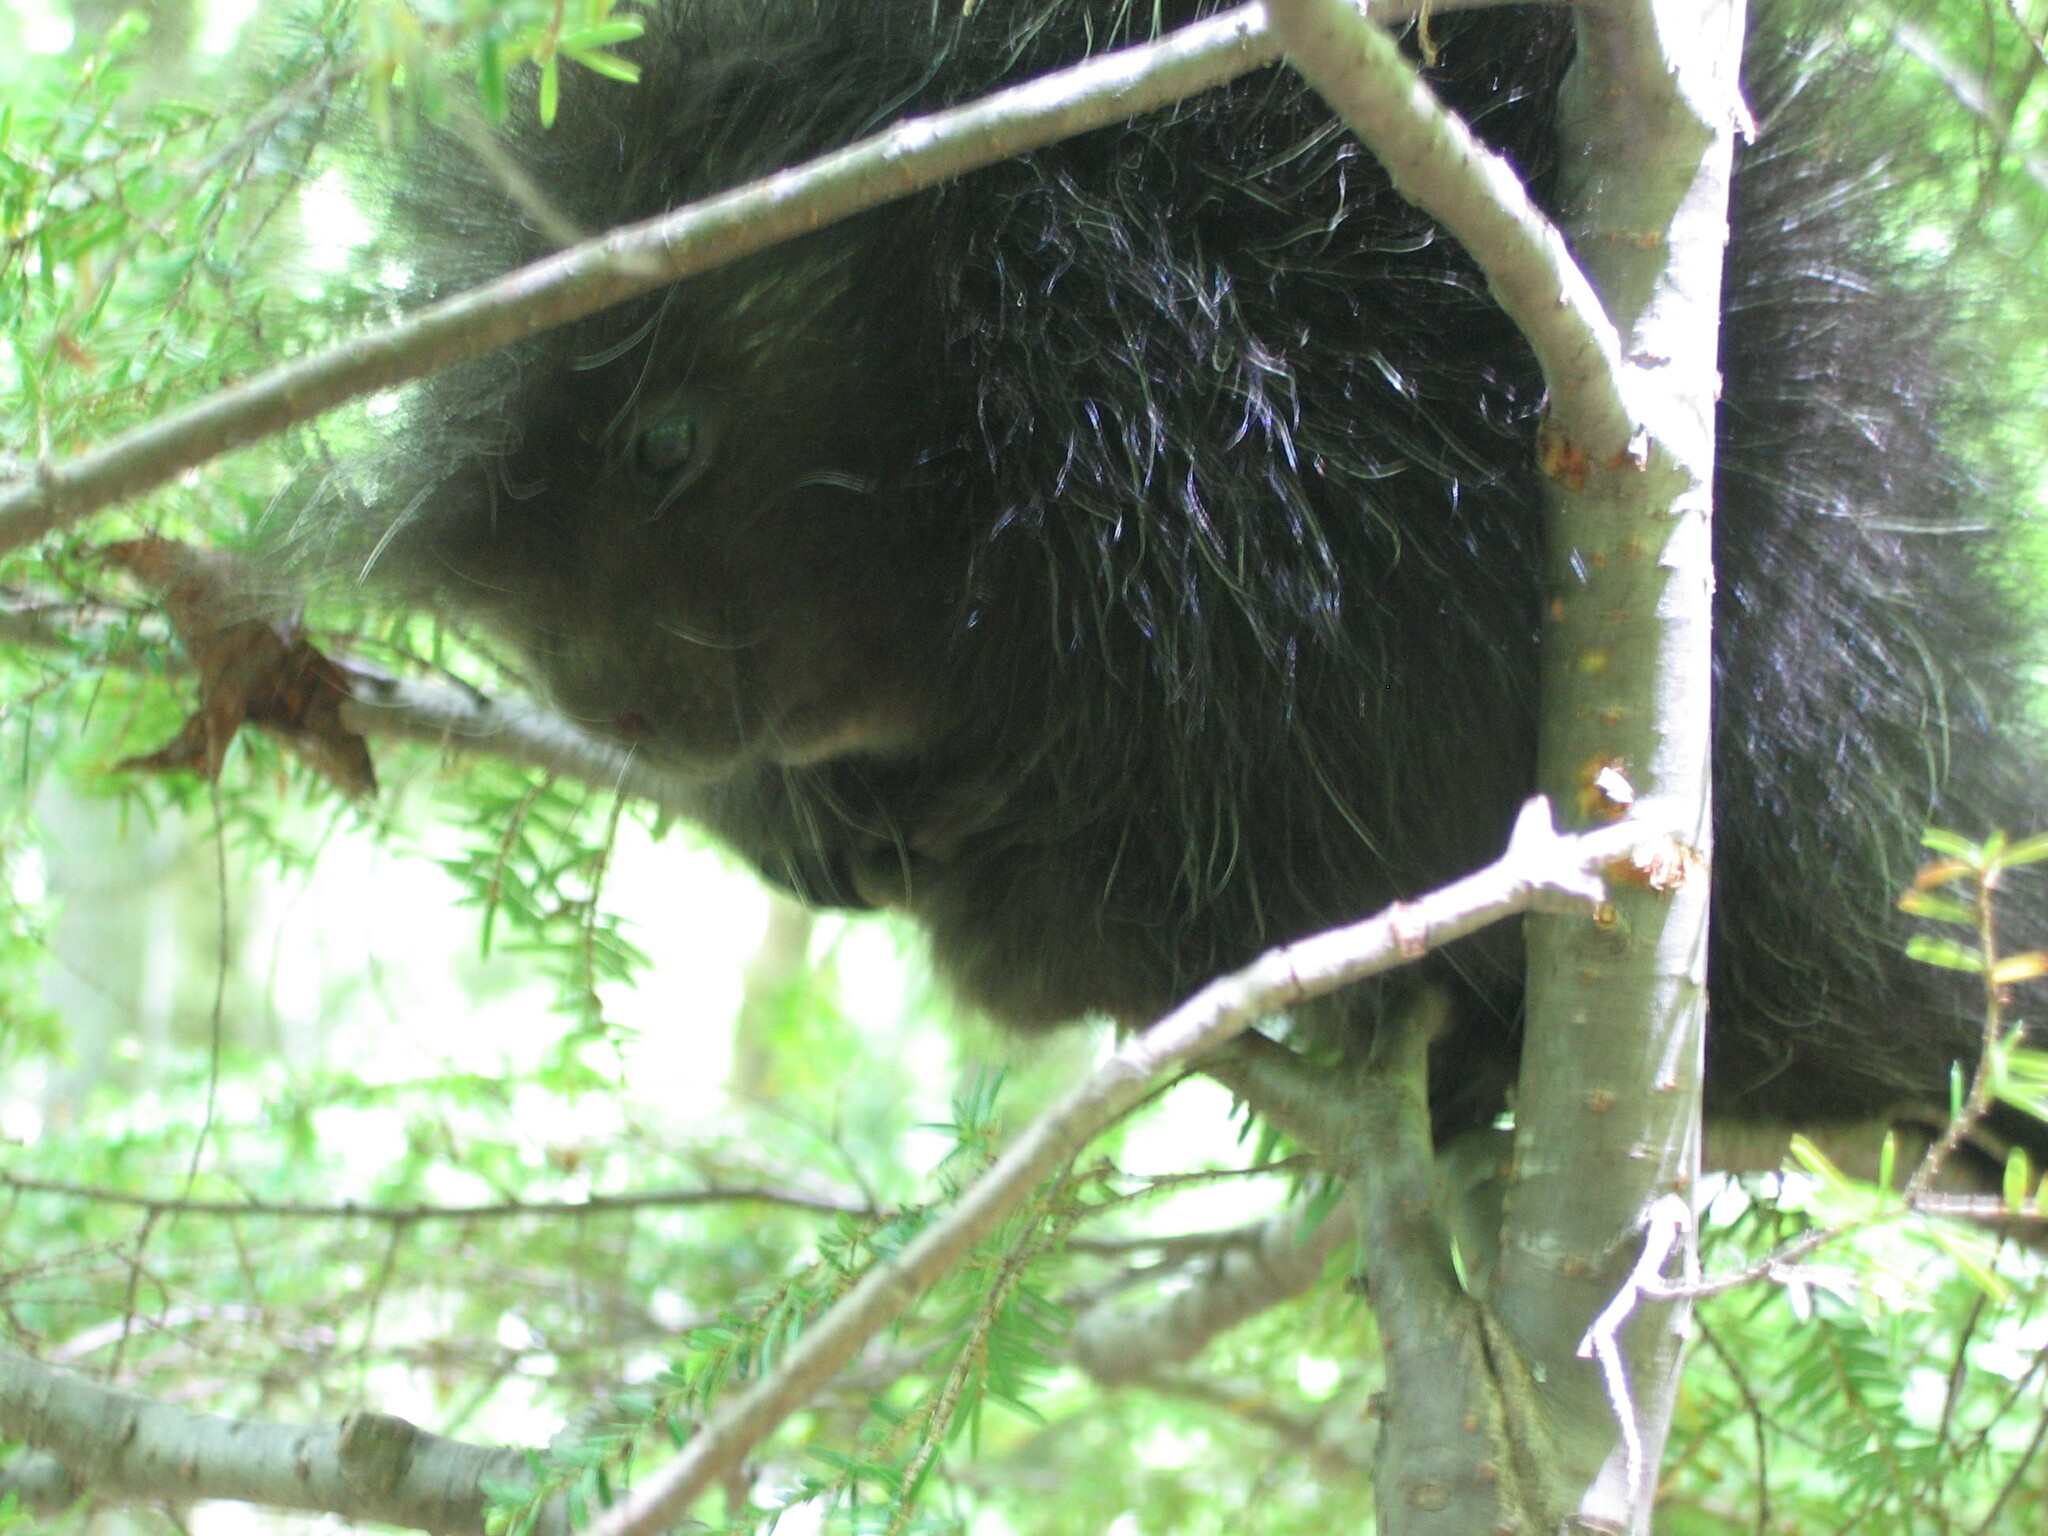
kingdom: Animalia
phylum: Chordata
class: Mammalia
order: Rodentia
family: Erethizontidae
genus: Erethizon
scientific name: Erethizon dorsatus
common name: North american porcupine
